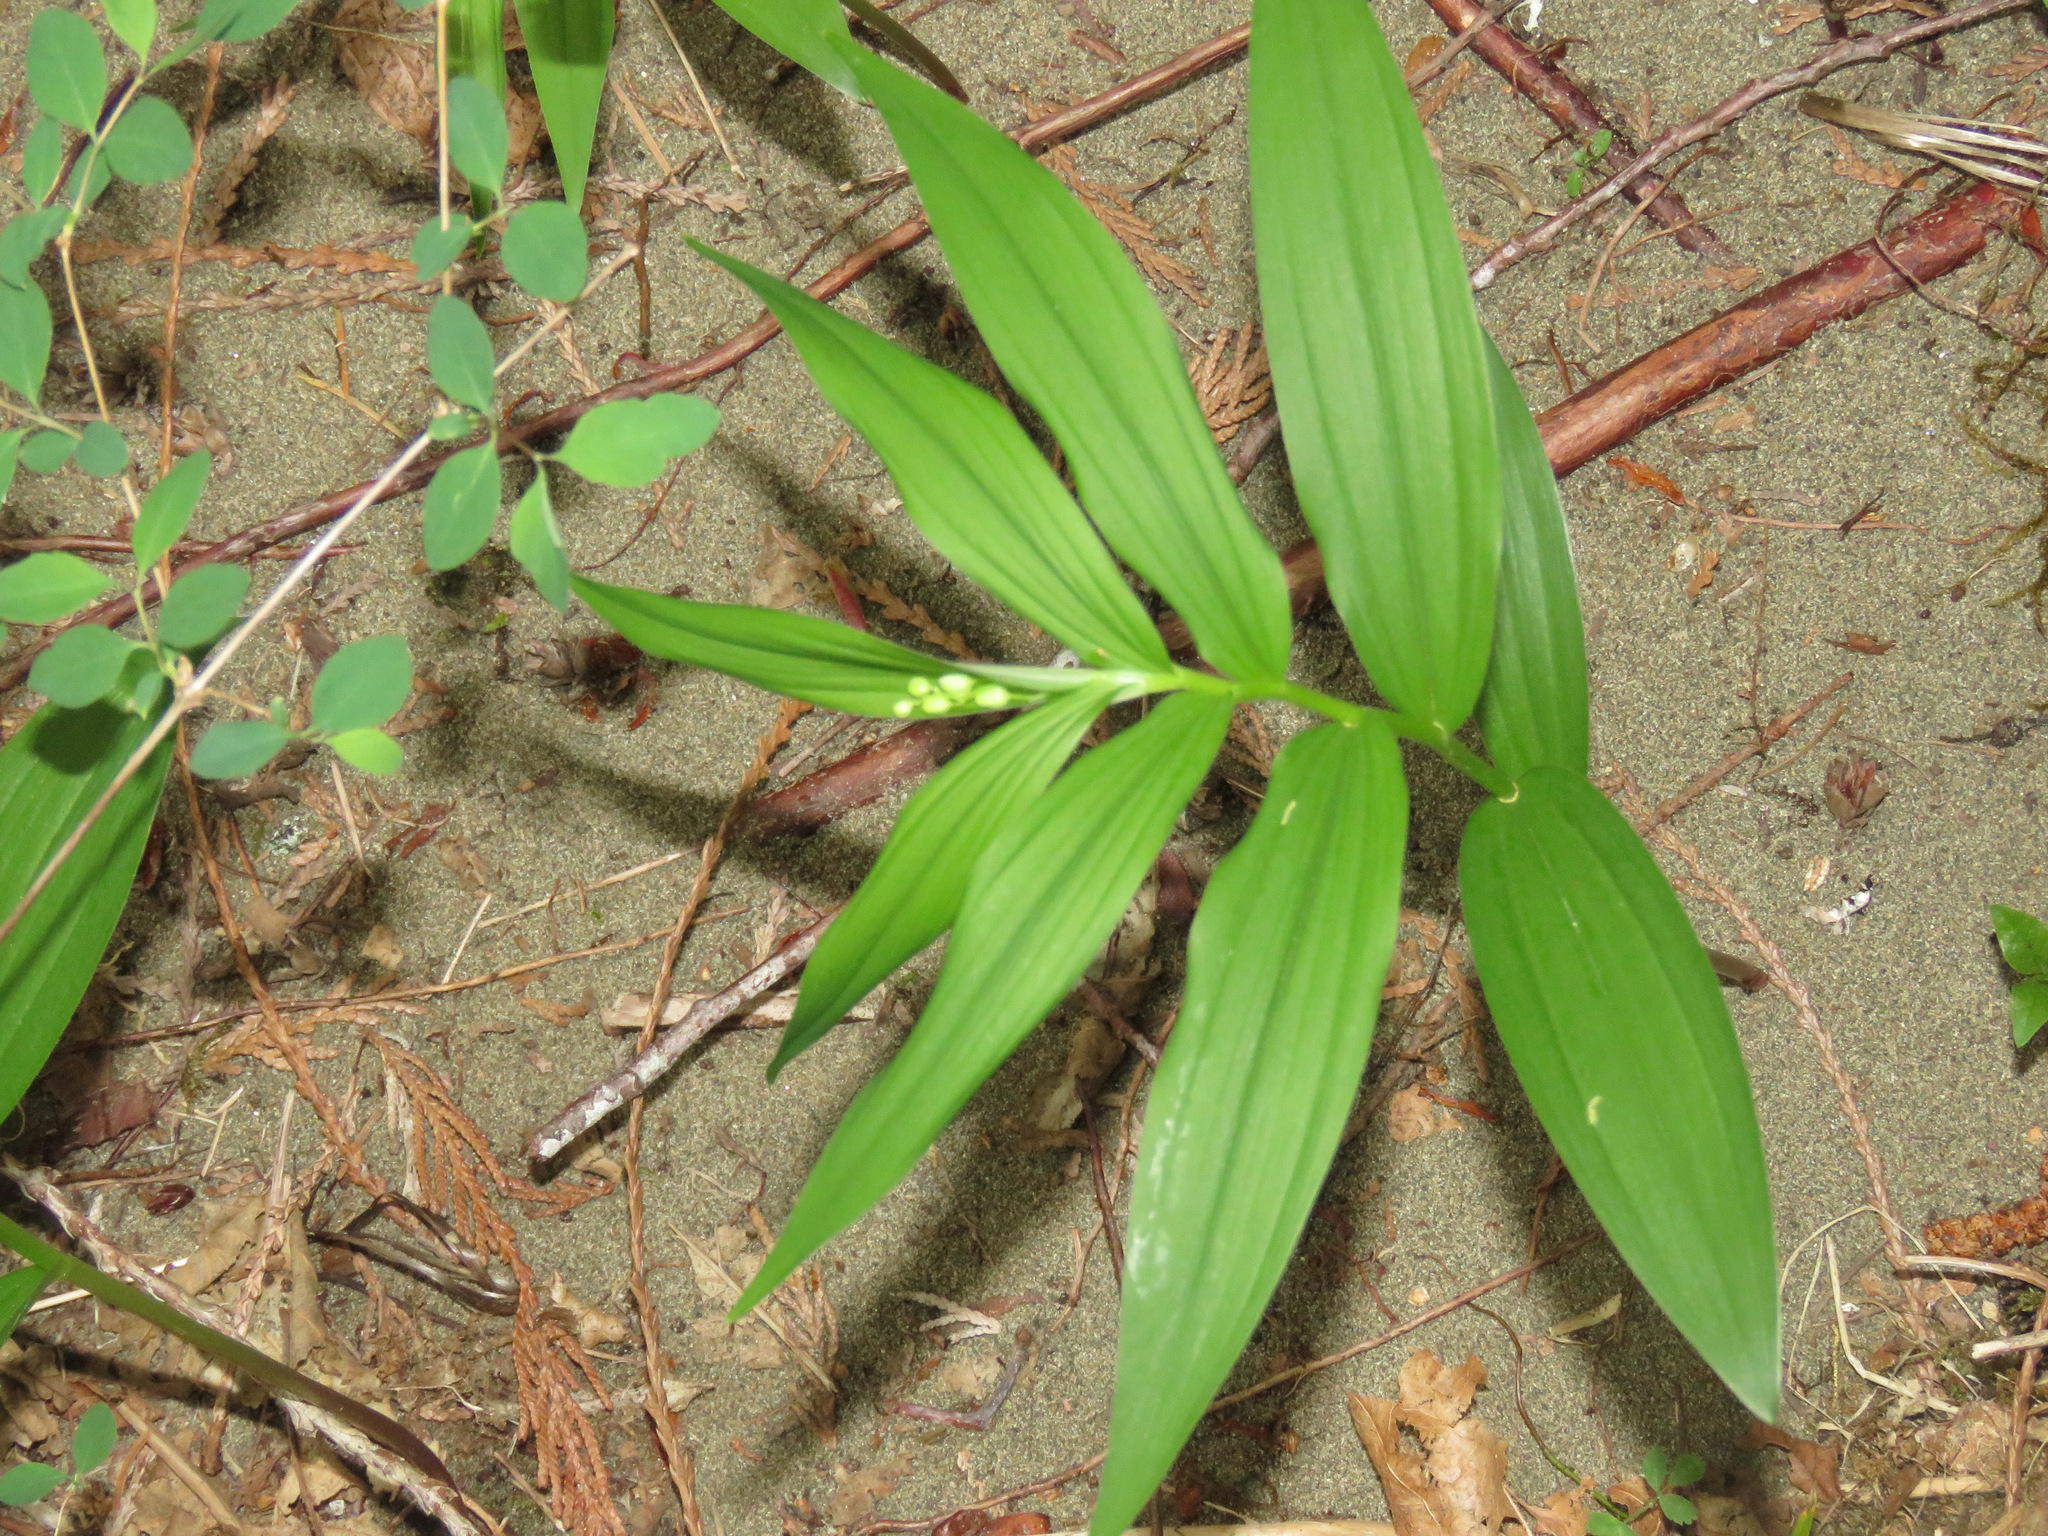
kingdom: Plantae
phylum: Tracheophyta
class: Liliopsida
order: Asparagales
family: Asparagaceae
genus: Maianthemum
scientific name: Maianthemum stellatum
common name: Little false solomon's seal
